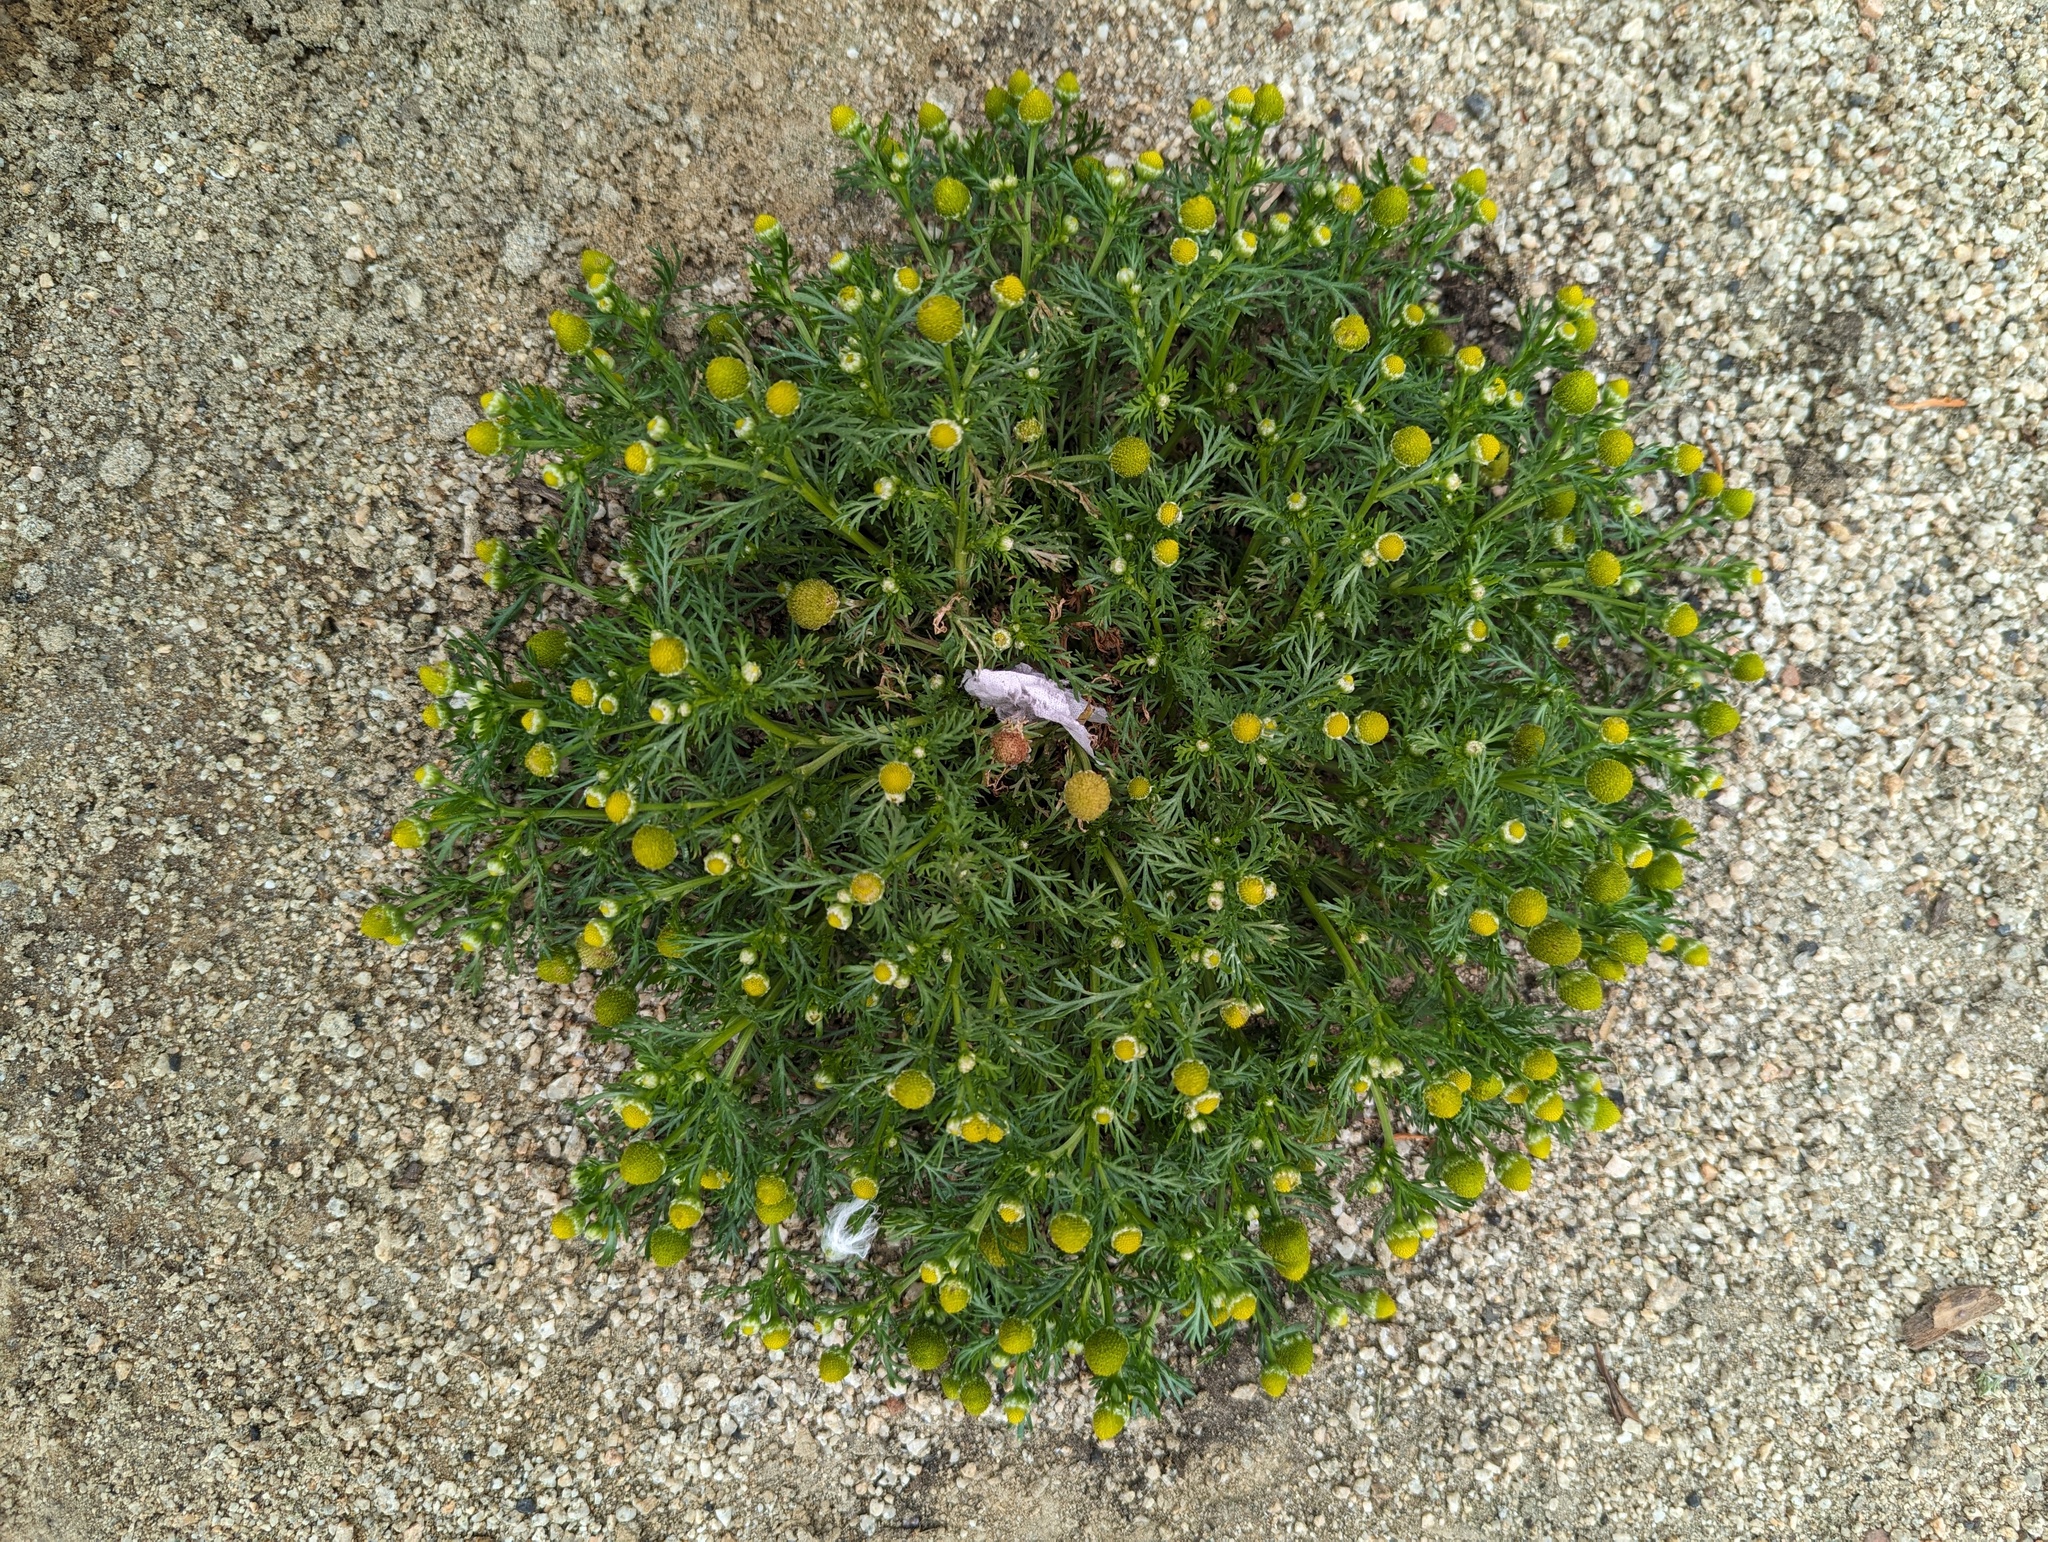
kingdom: Plantae
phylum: Tracheophyta
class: Magnoliopsida
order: Asterales
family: Asteraceae
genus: Matricaria
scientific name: Matricaria discoidea
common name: Disc mayweed
